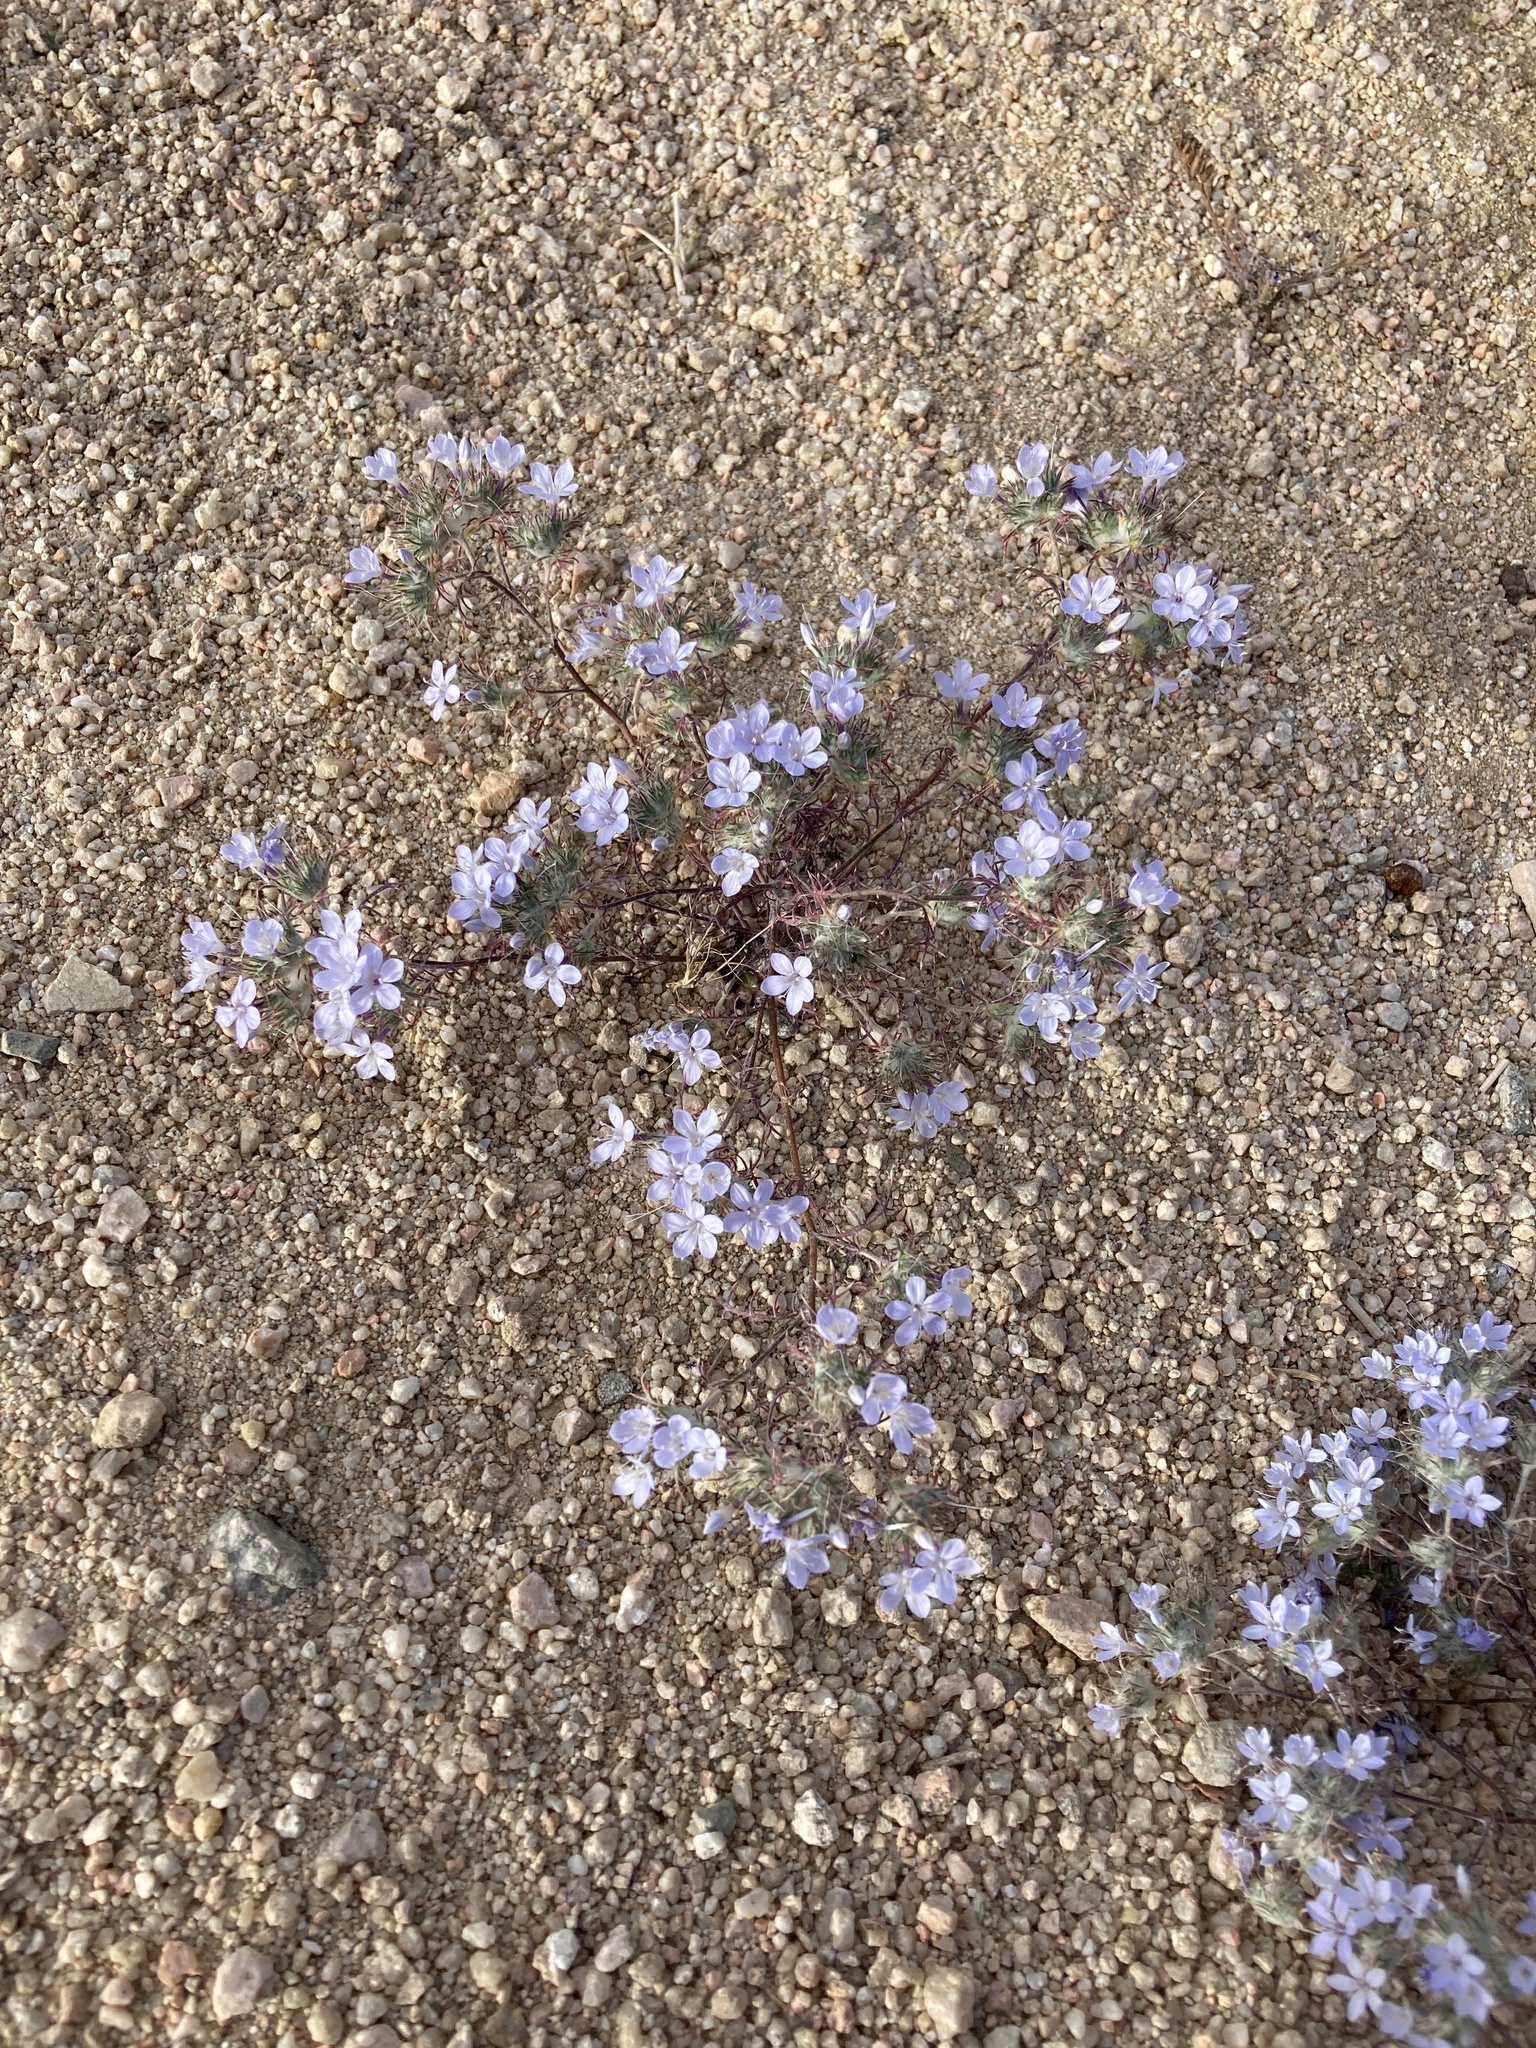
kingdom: Plantae
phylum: Tracheophyta
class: Magnoliopsida
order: Ericales
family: Polemoniaceae
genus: Eriastrum
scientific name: Eriastrum pluriflorum
